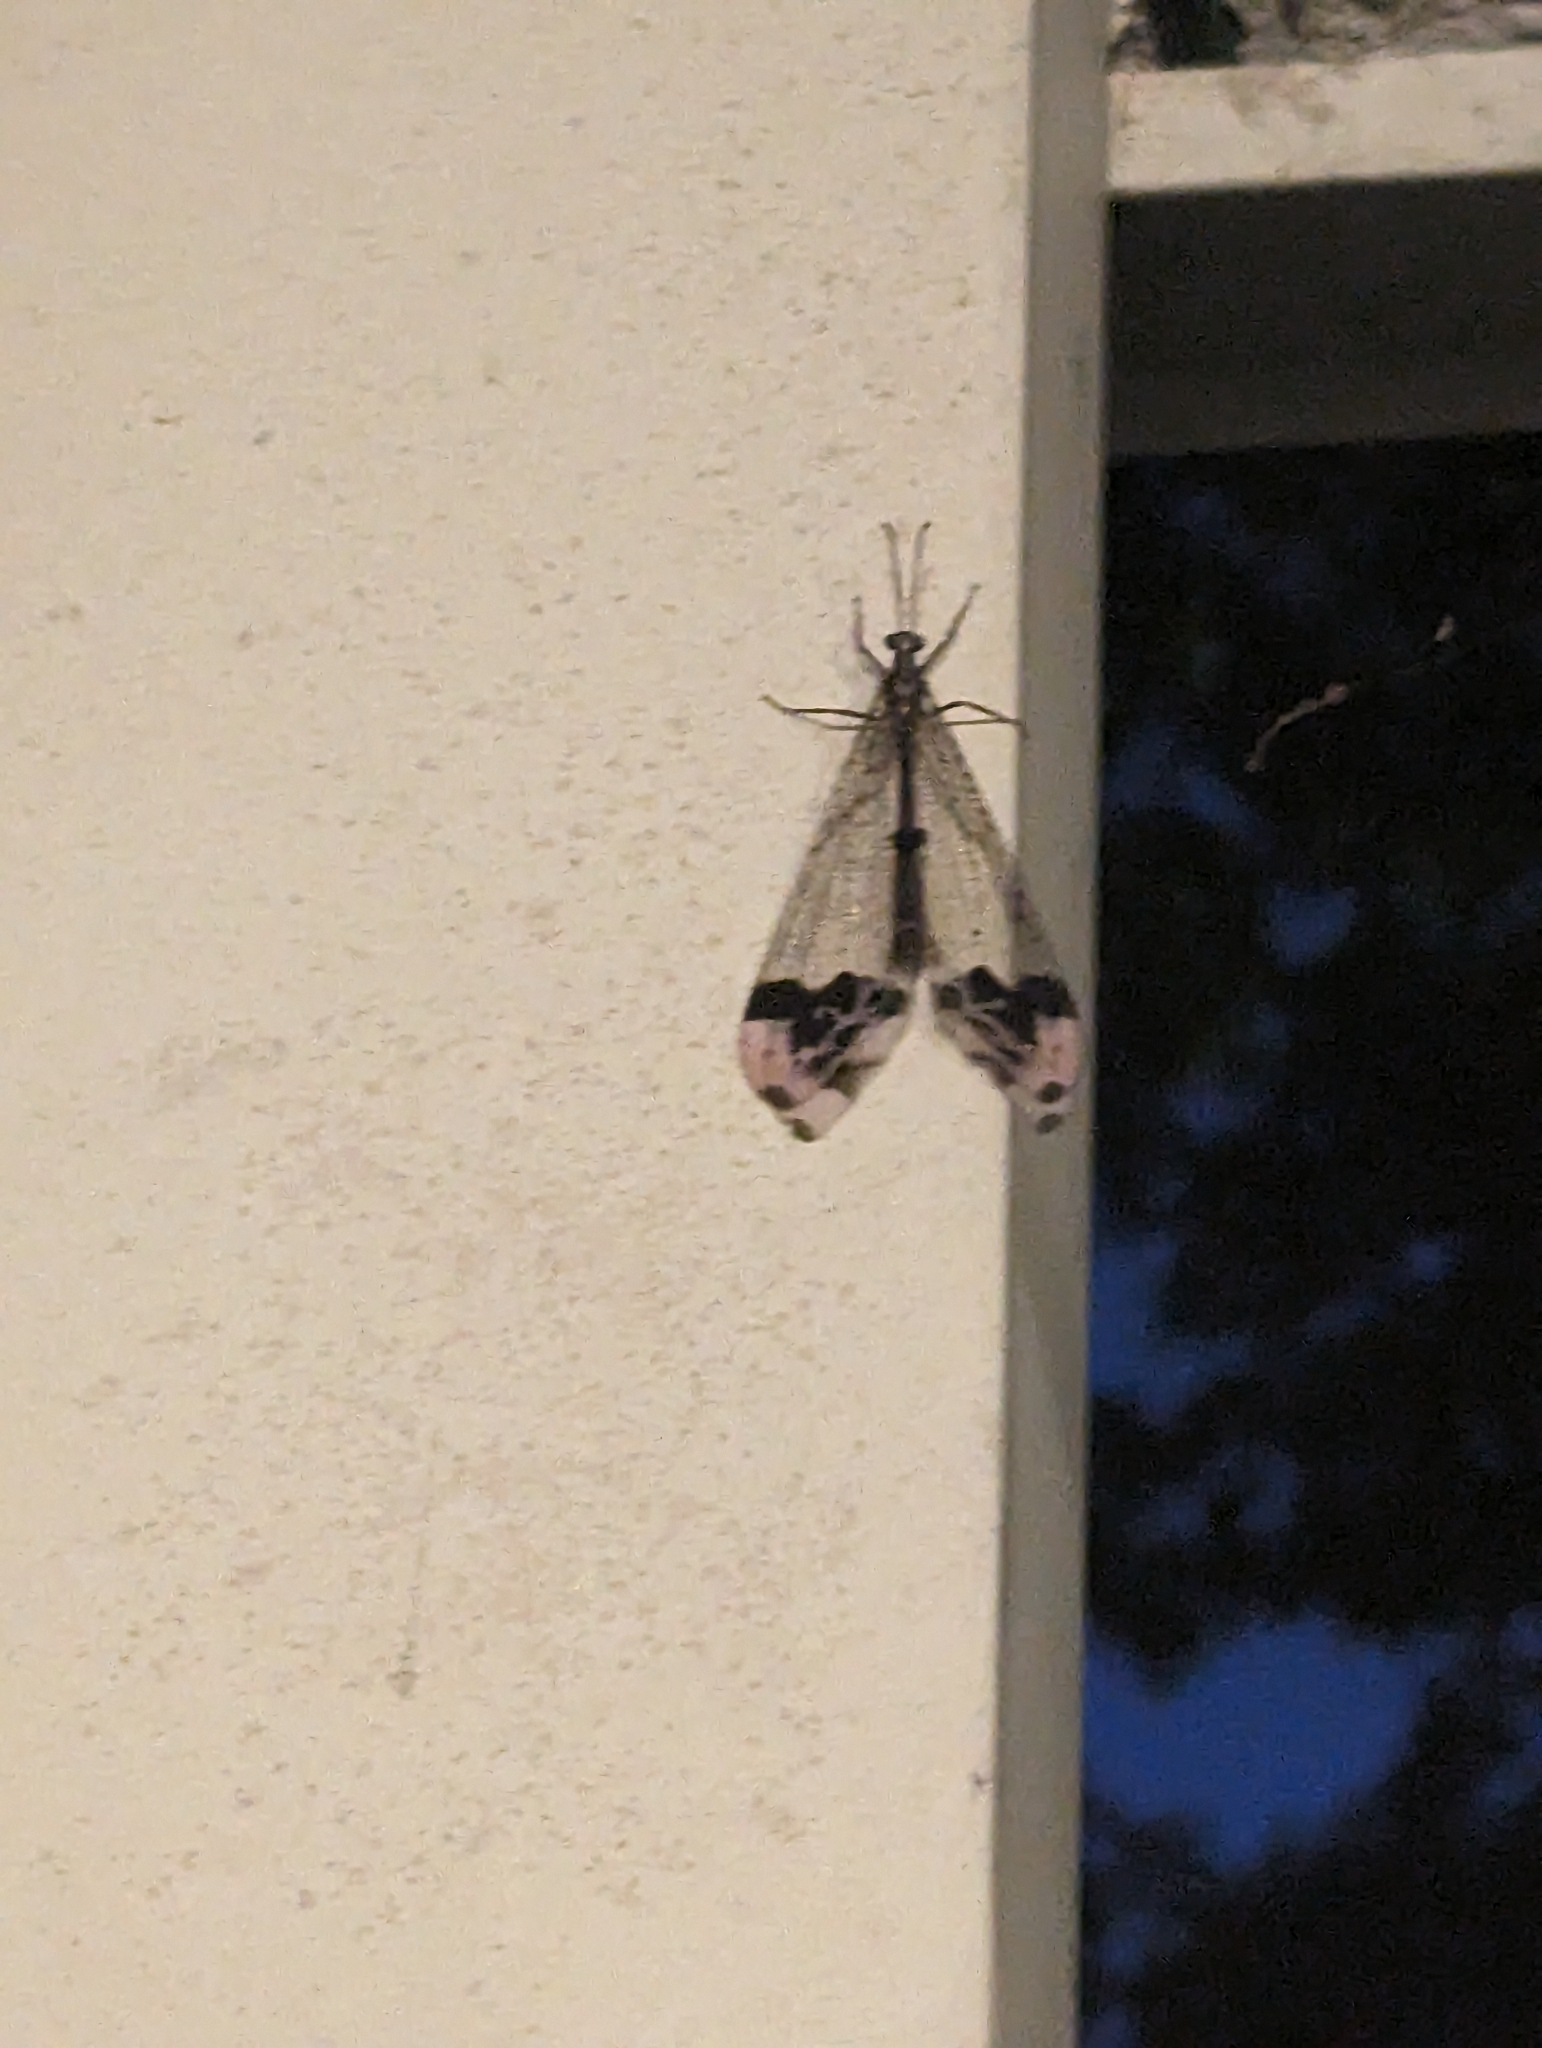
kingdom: Animalia
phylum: Arthropoda
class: Insecta
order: Neuroptera
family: Myrmeleontidae
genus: Glenurus
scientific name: Glenurus gratus
